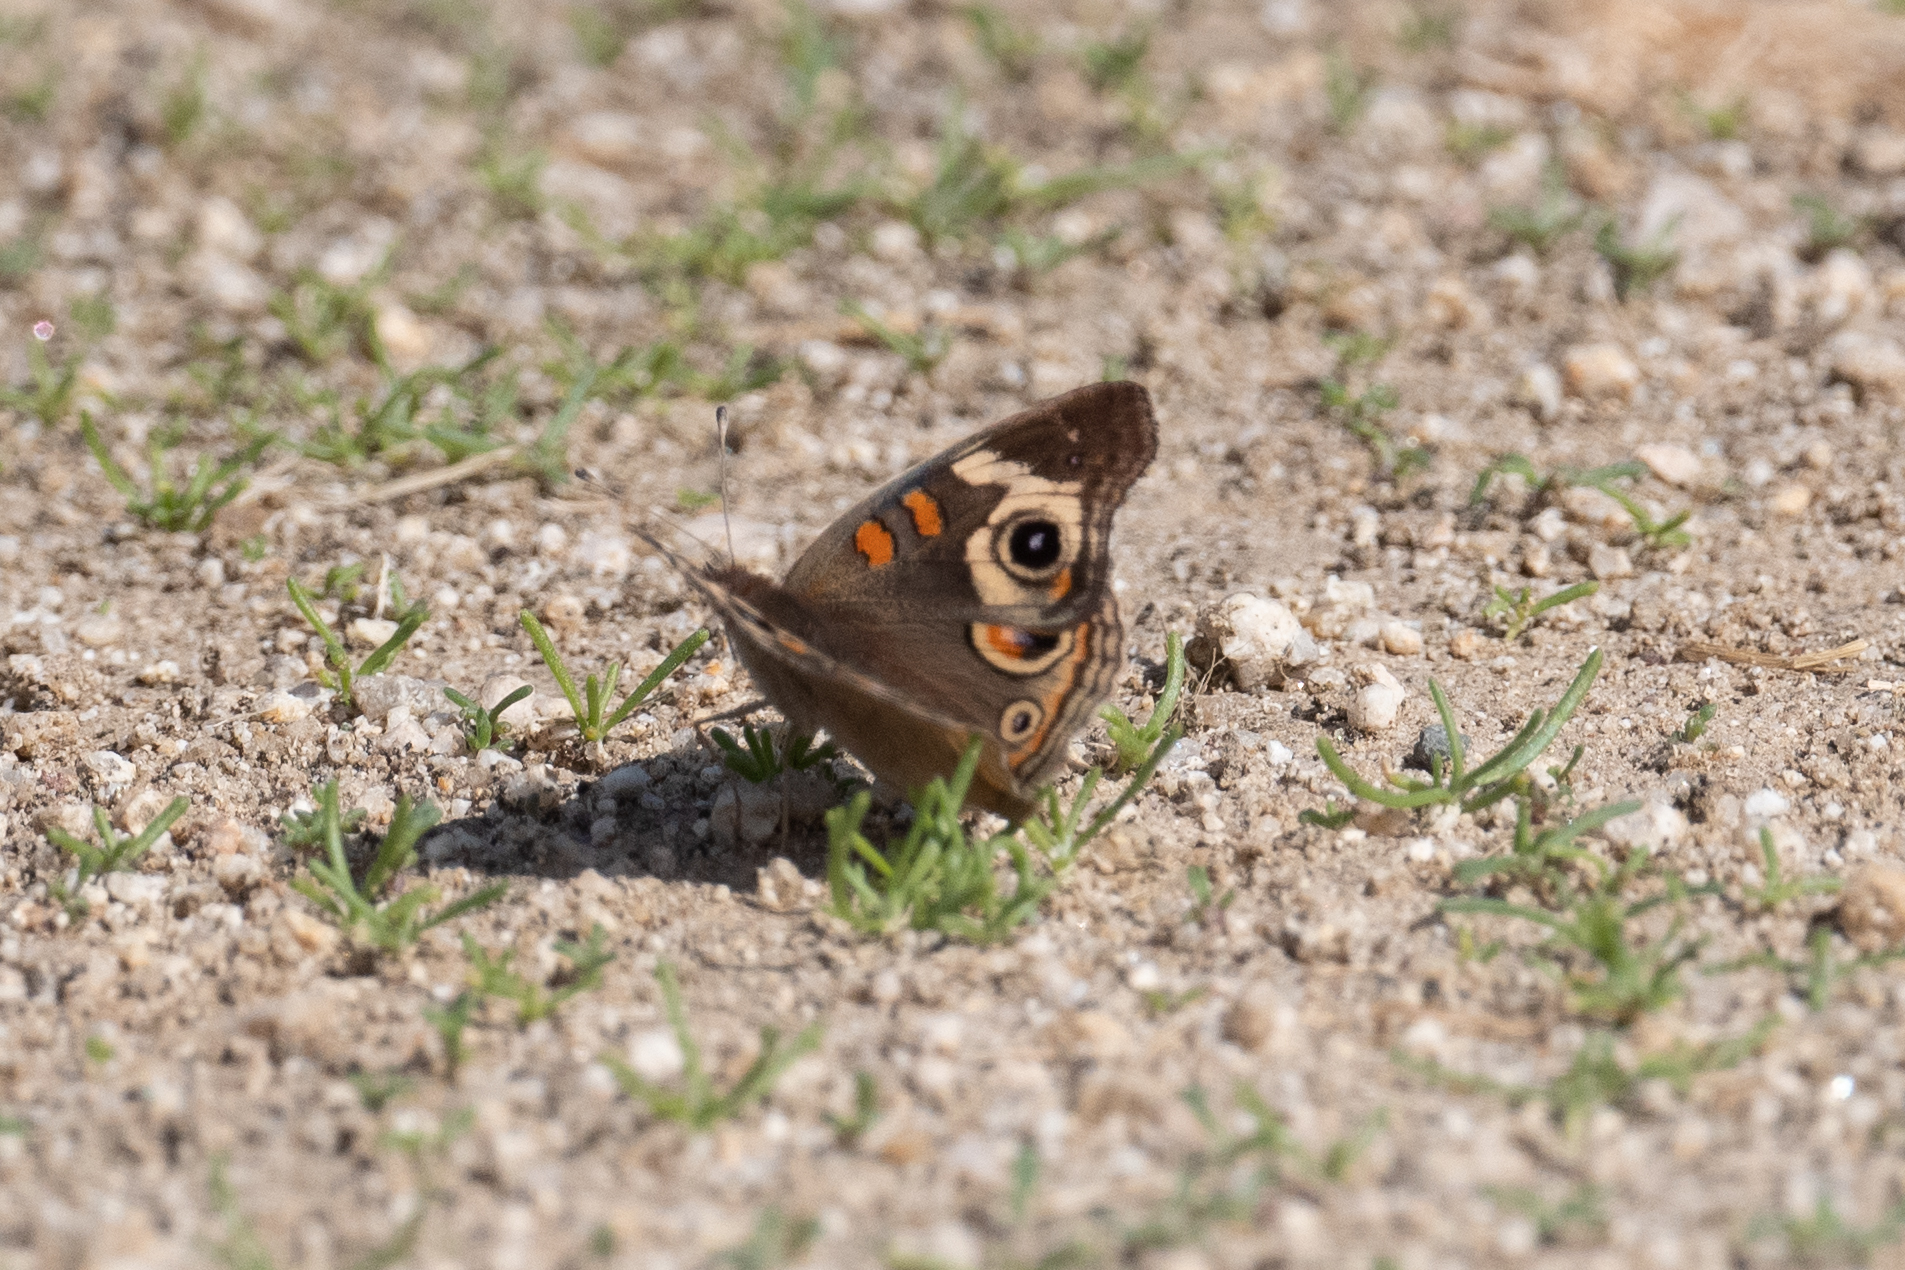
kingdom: Animalia
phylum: Arthropoda
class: Insecta
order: Lepidoptera
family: Nymphalidae
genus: Junonia
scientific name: Junonia grisea
